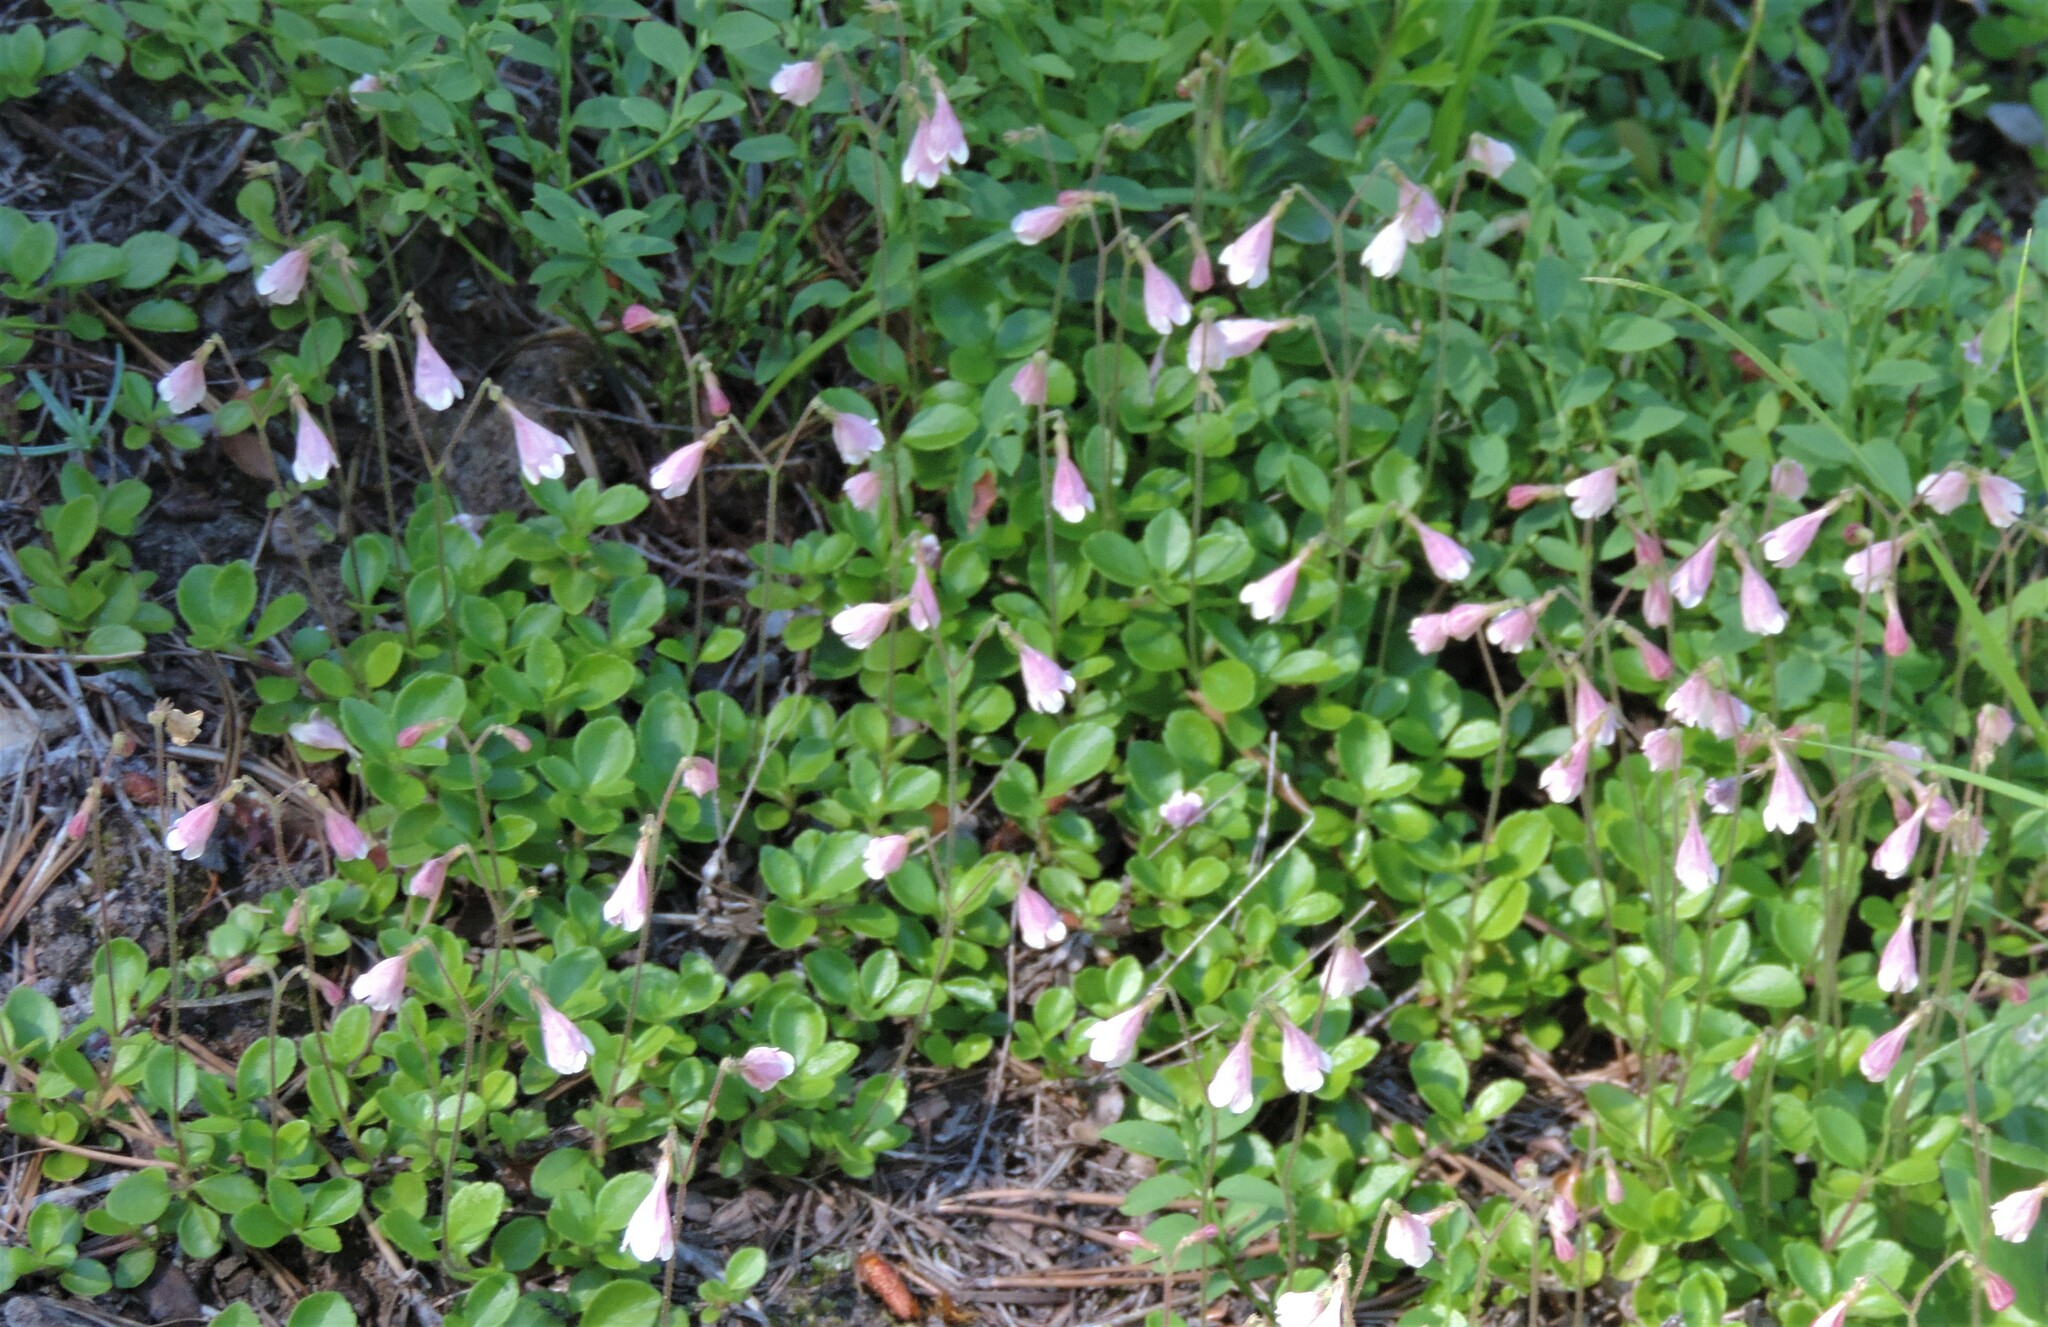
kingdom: Plantae
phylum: Tracheophyta
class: Magnoliopsida
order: Dipsacales
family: Caprifoliaceae
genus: Linnaea
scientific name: Linnaea borealis
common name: Twinflower
